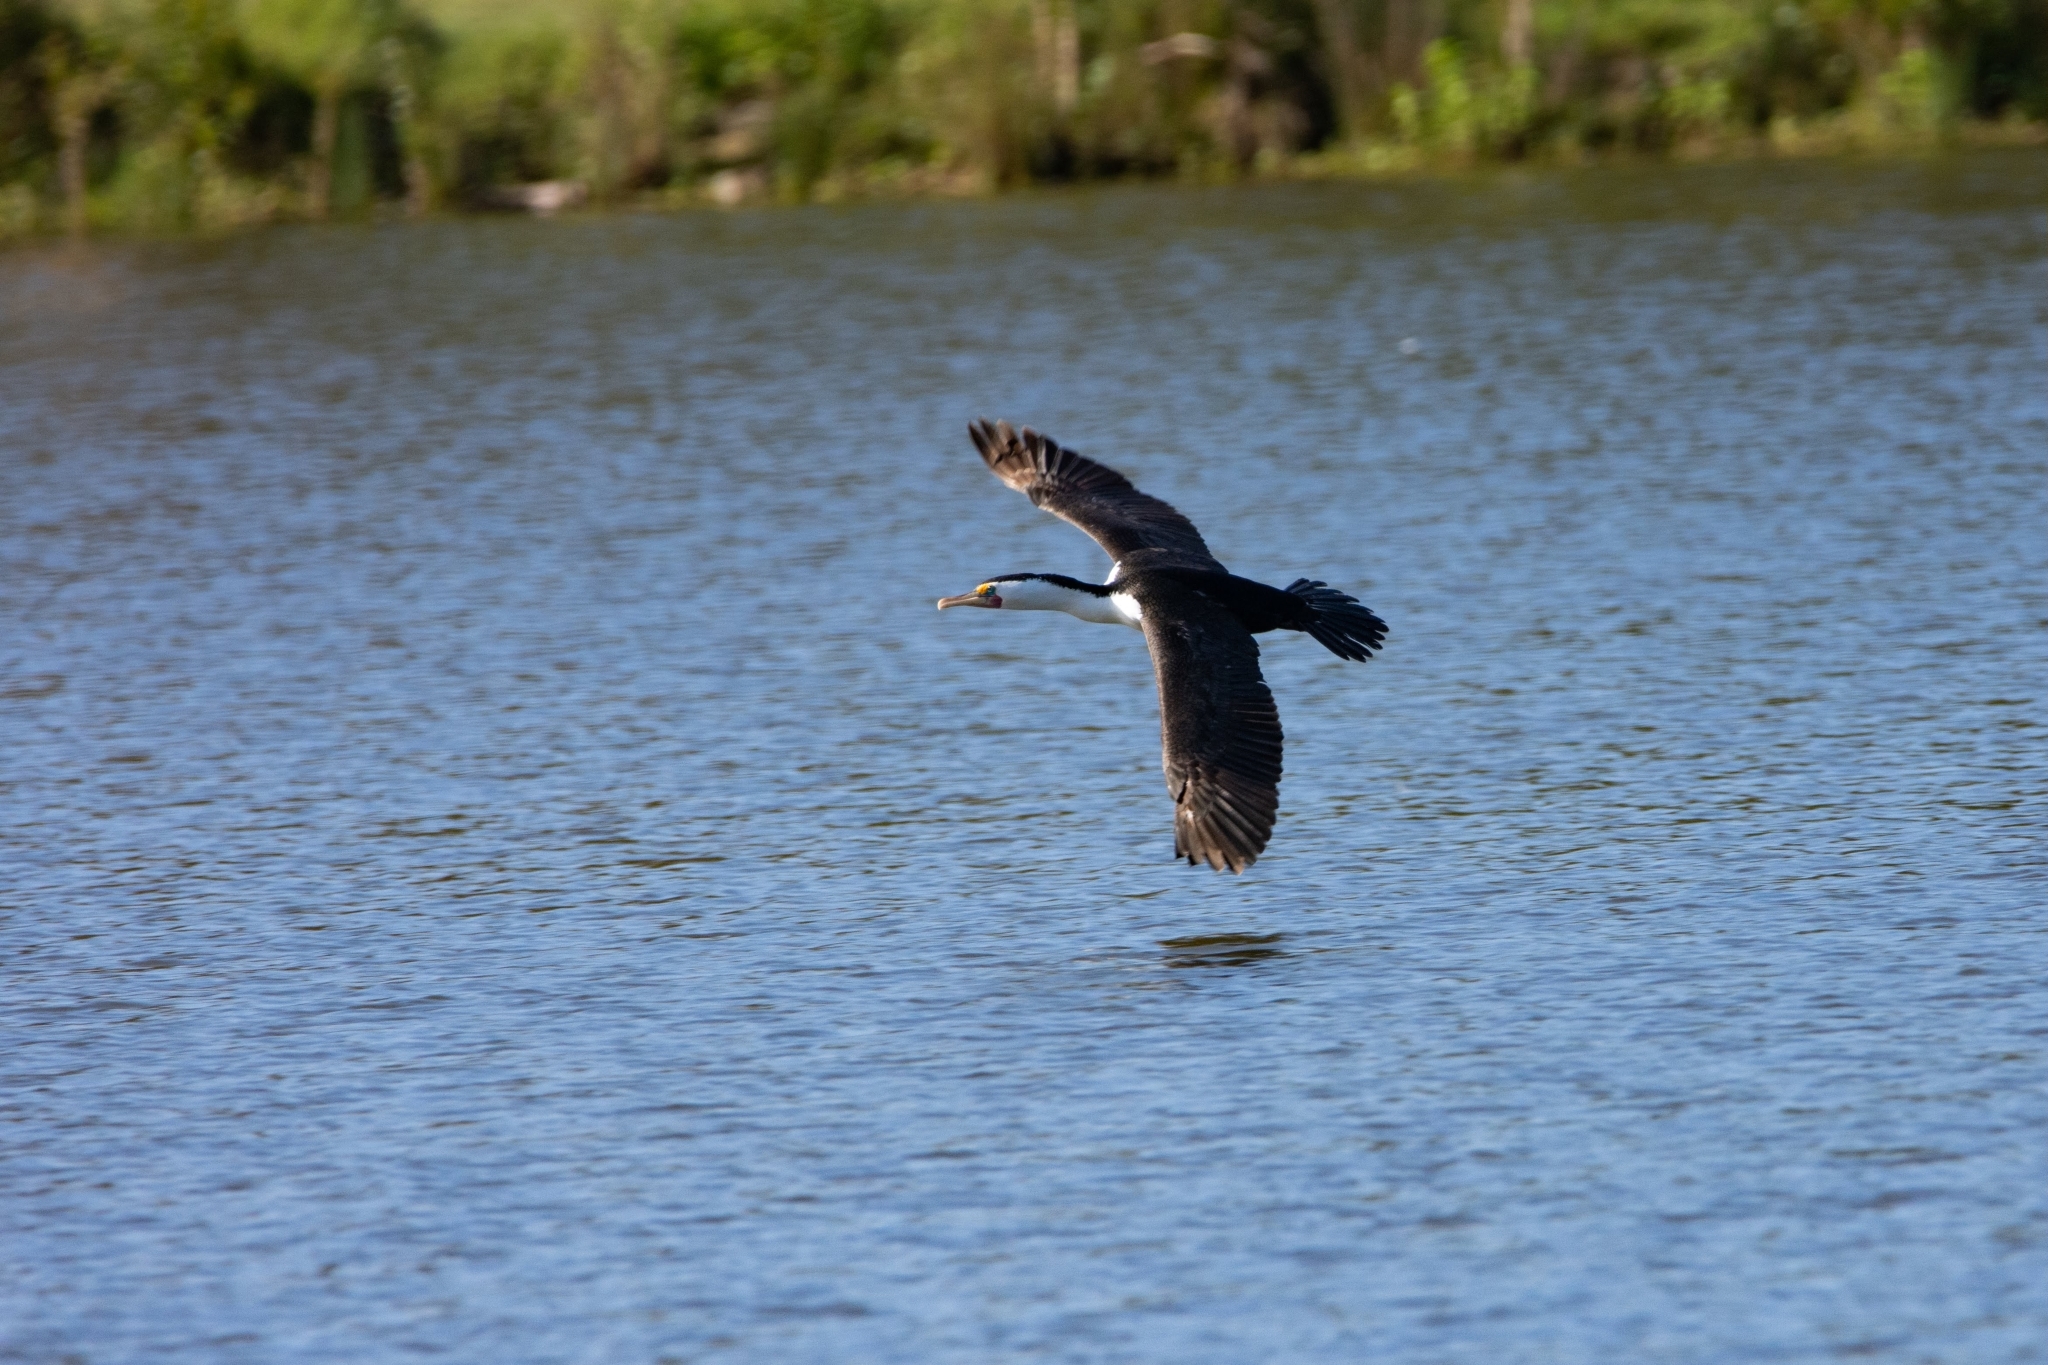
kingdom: Animalia
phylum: Chordata
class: Aves
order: Suliformes
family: Phalacrocoracidae
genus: Phalacrocorax
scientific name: Phalacrocorax varius
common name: Pied cormorant
